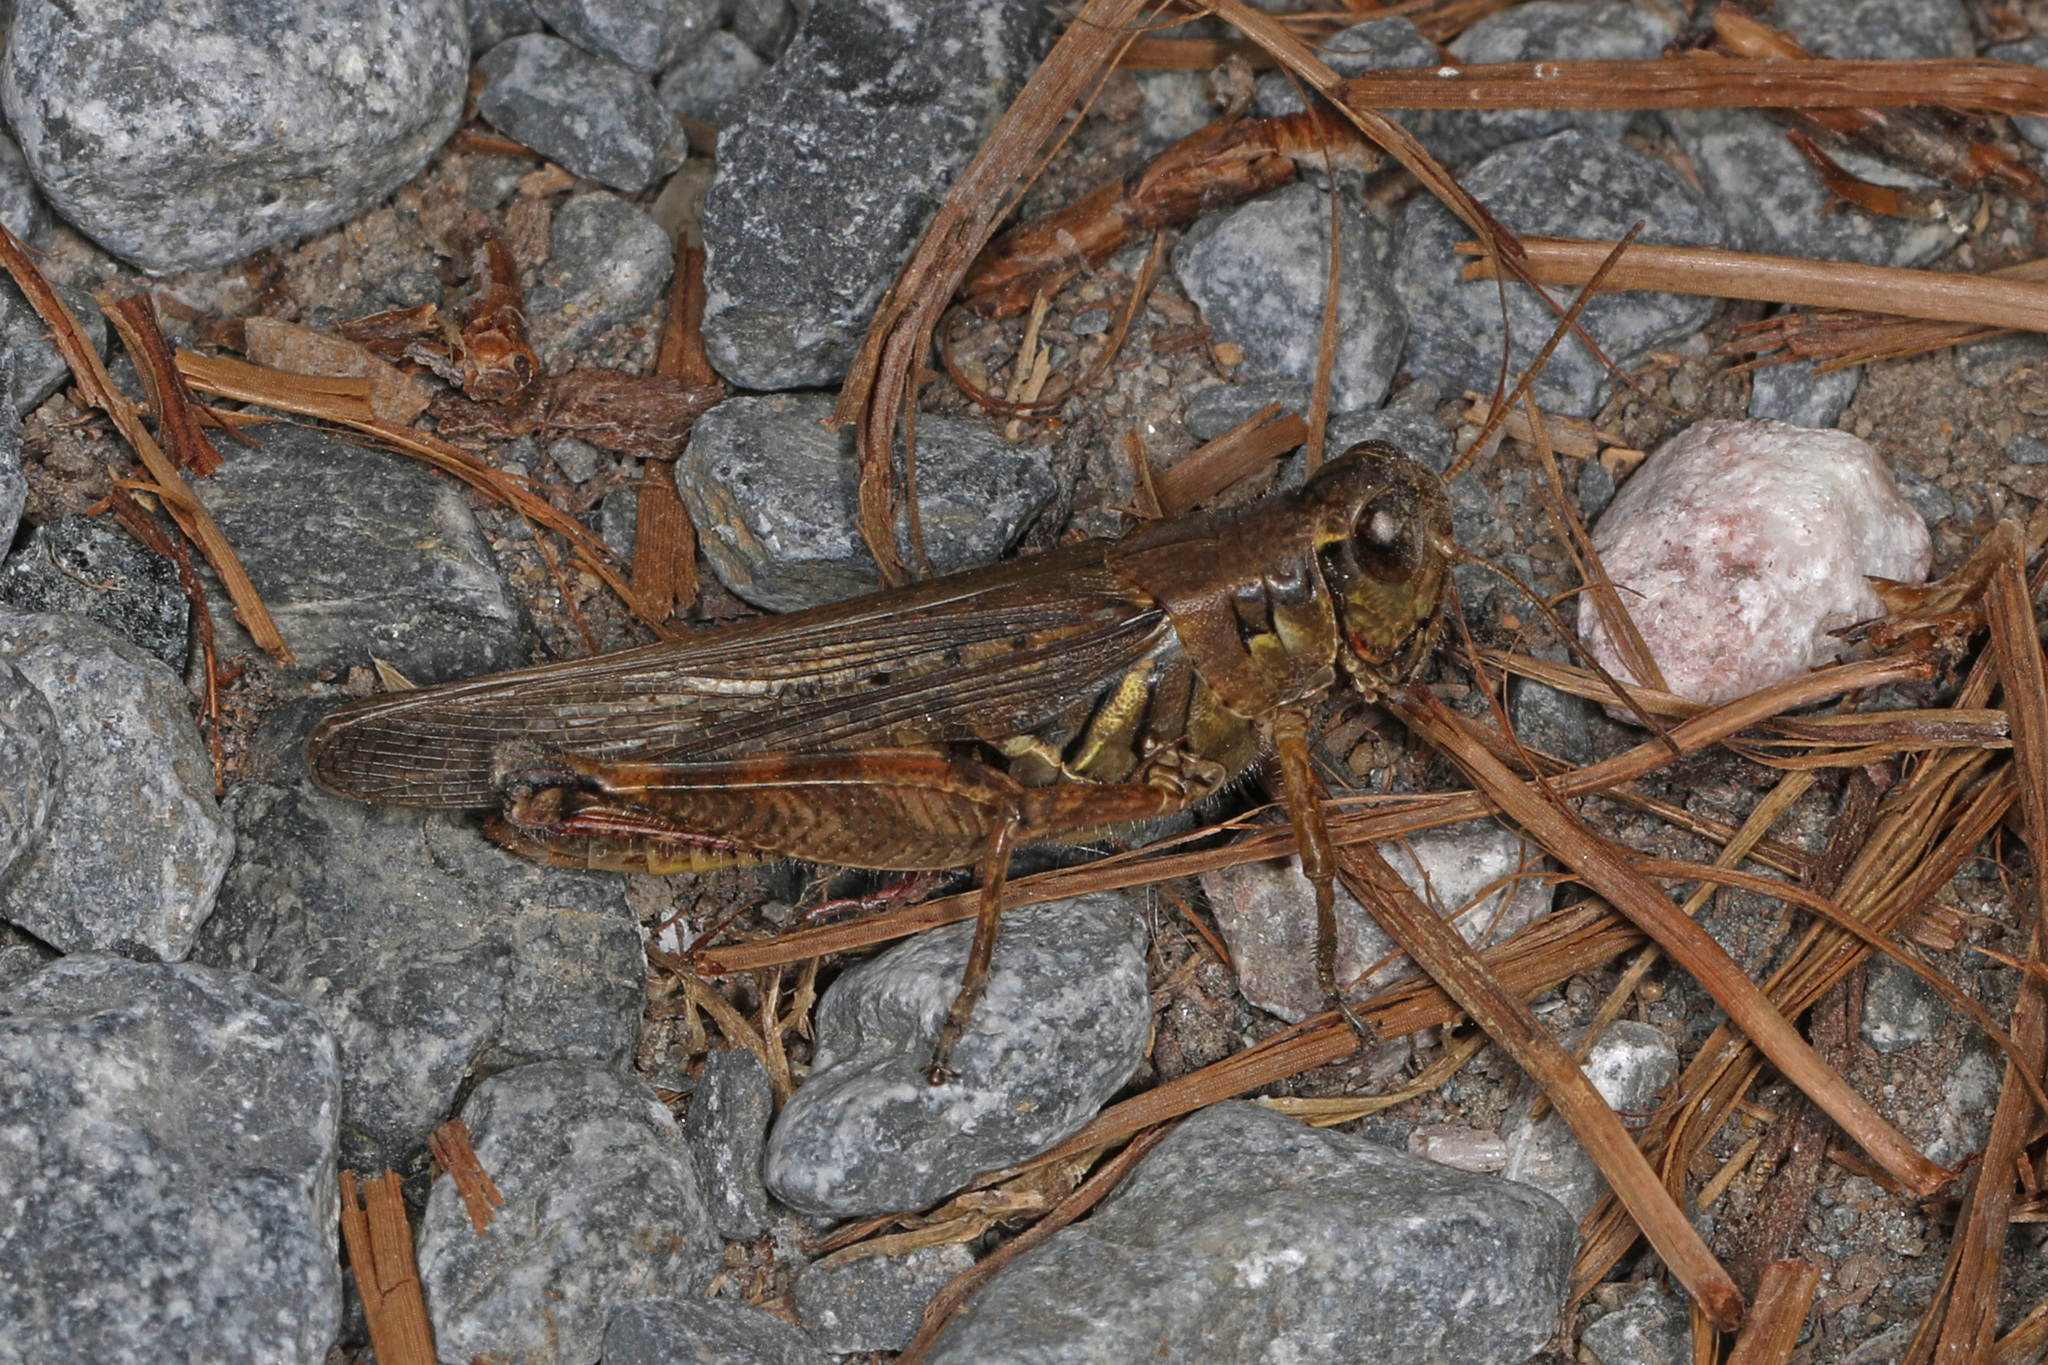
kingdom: Animalia
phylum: Arthropoda
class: Insecta
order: Orthoptera
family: Acrididae
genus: Melanoplus
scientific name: Melanoplus femurrubrum
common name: Red-legged grasshopper
